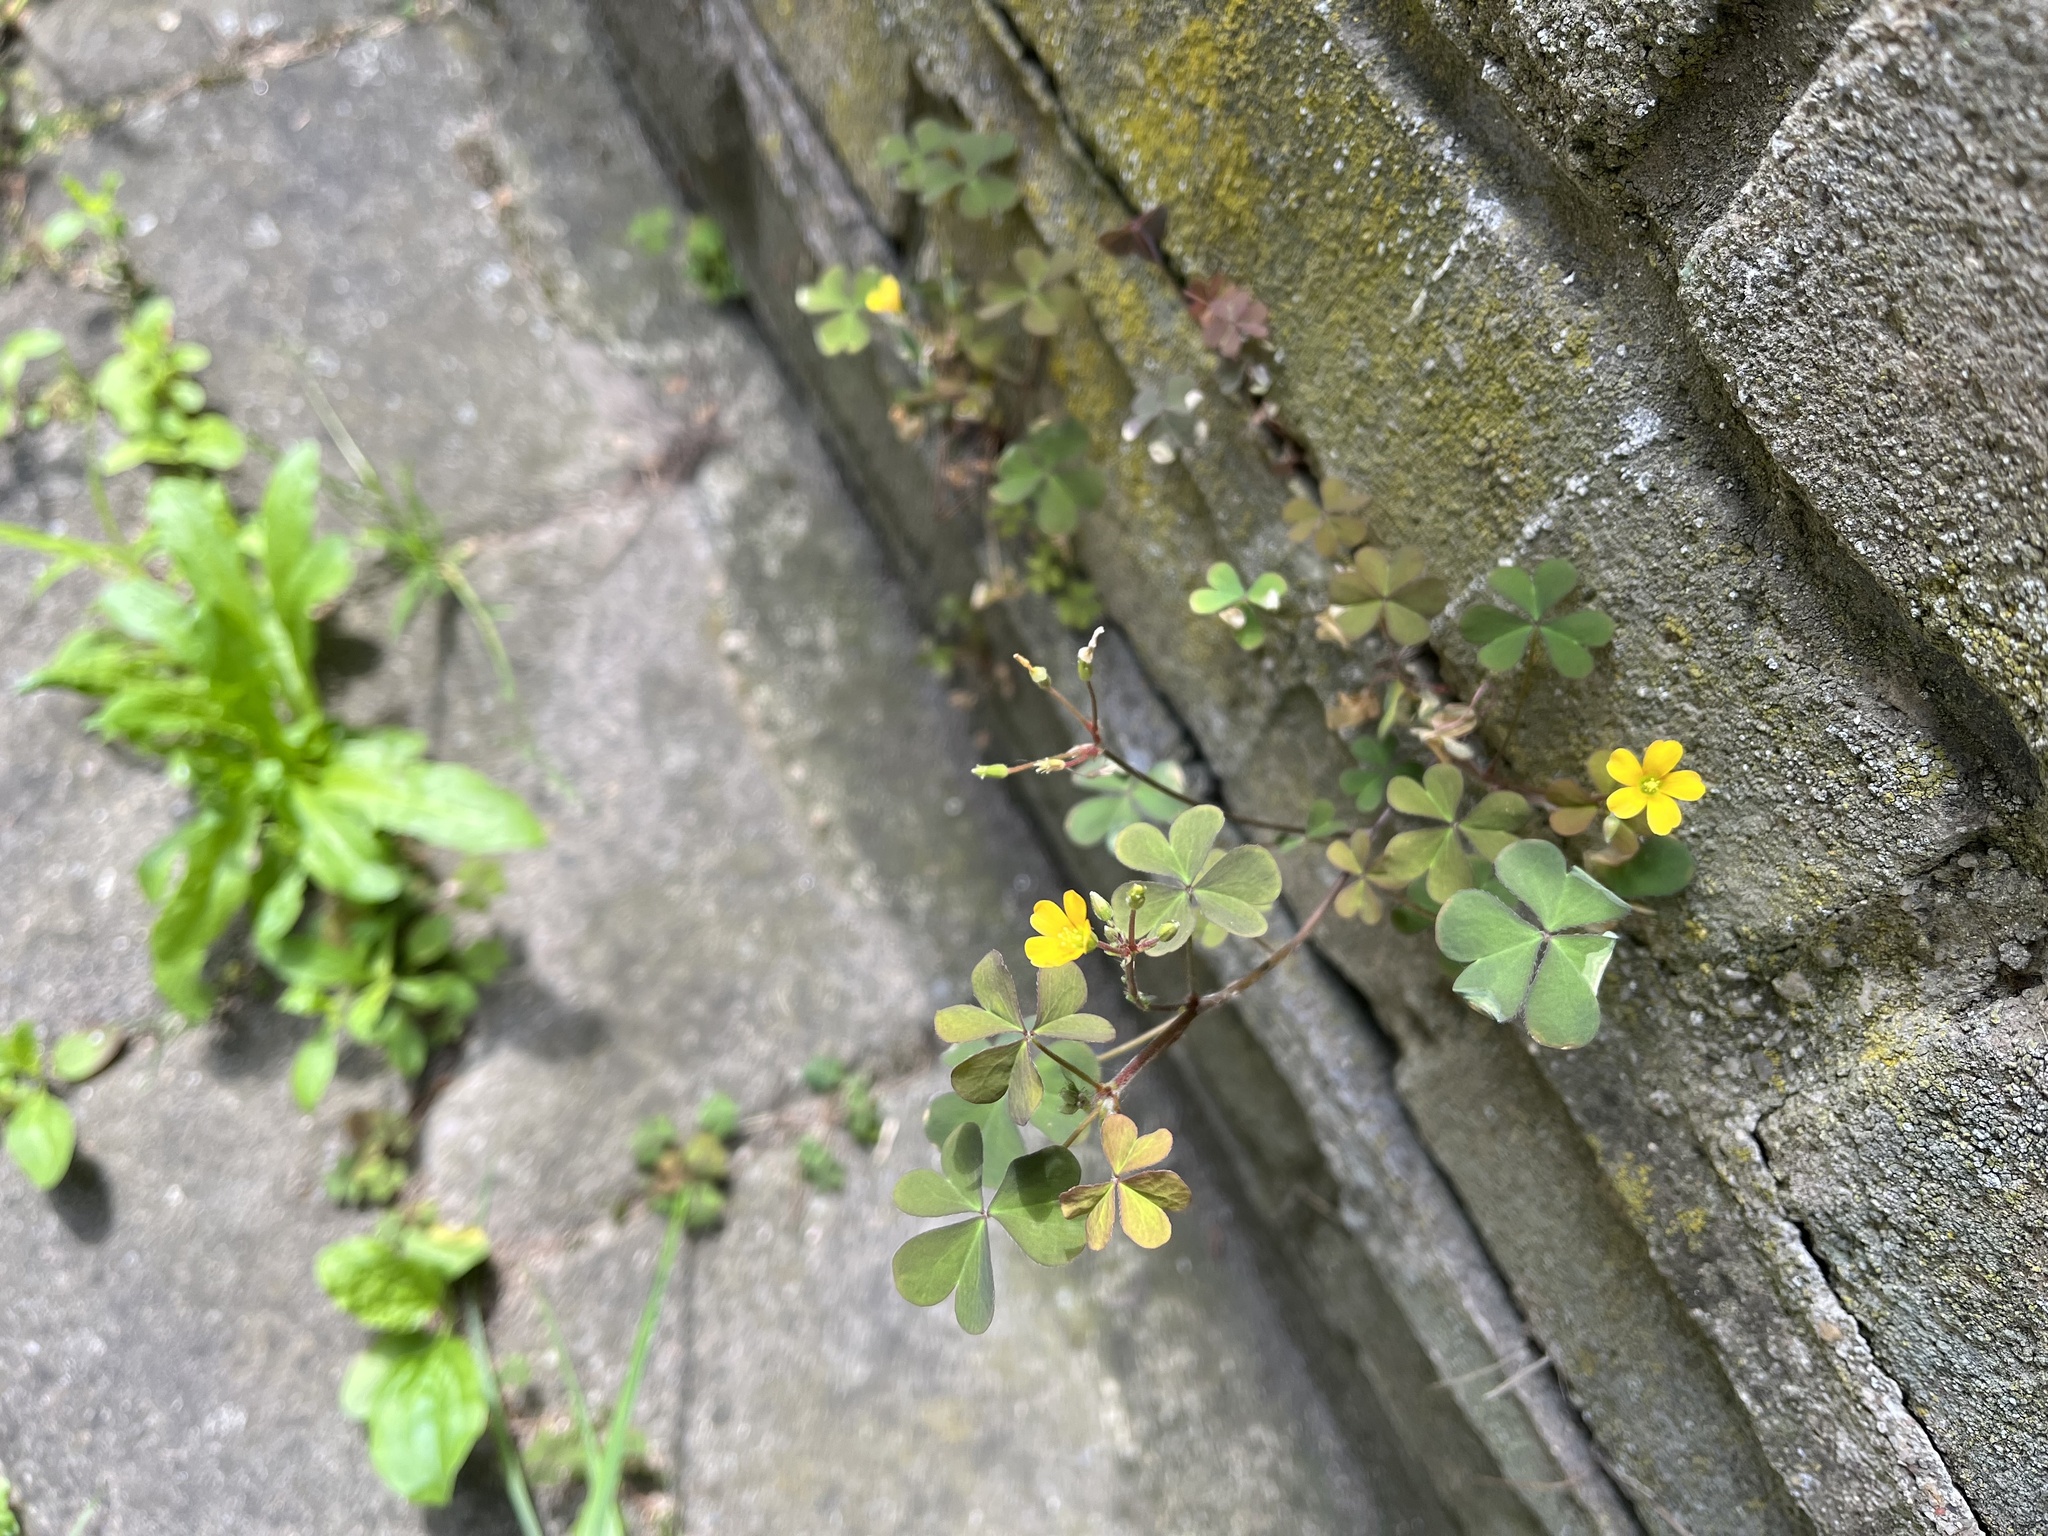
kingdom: Plantae
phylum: Tracheophyta
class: Magnoliopsida
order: Oxalidales
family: Oxalidaceae
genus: Oxalis
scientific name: Oxalis corniculata
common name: Procumbent yellow-sorrel
